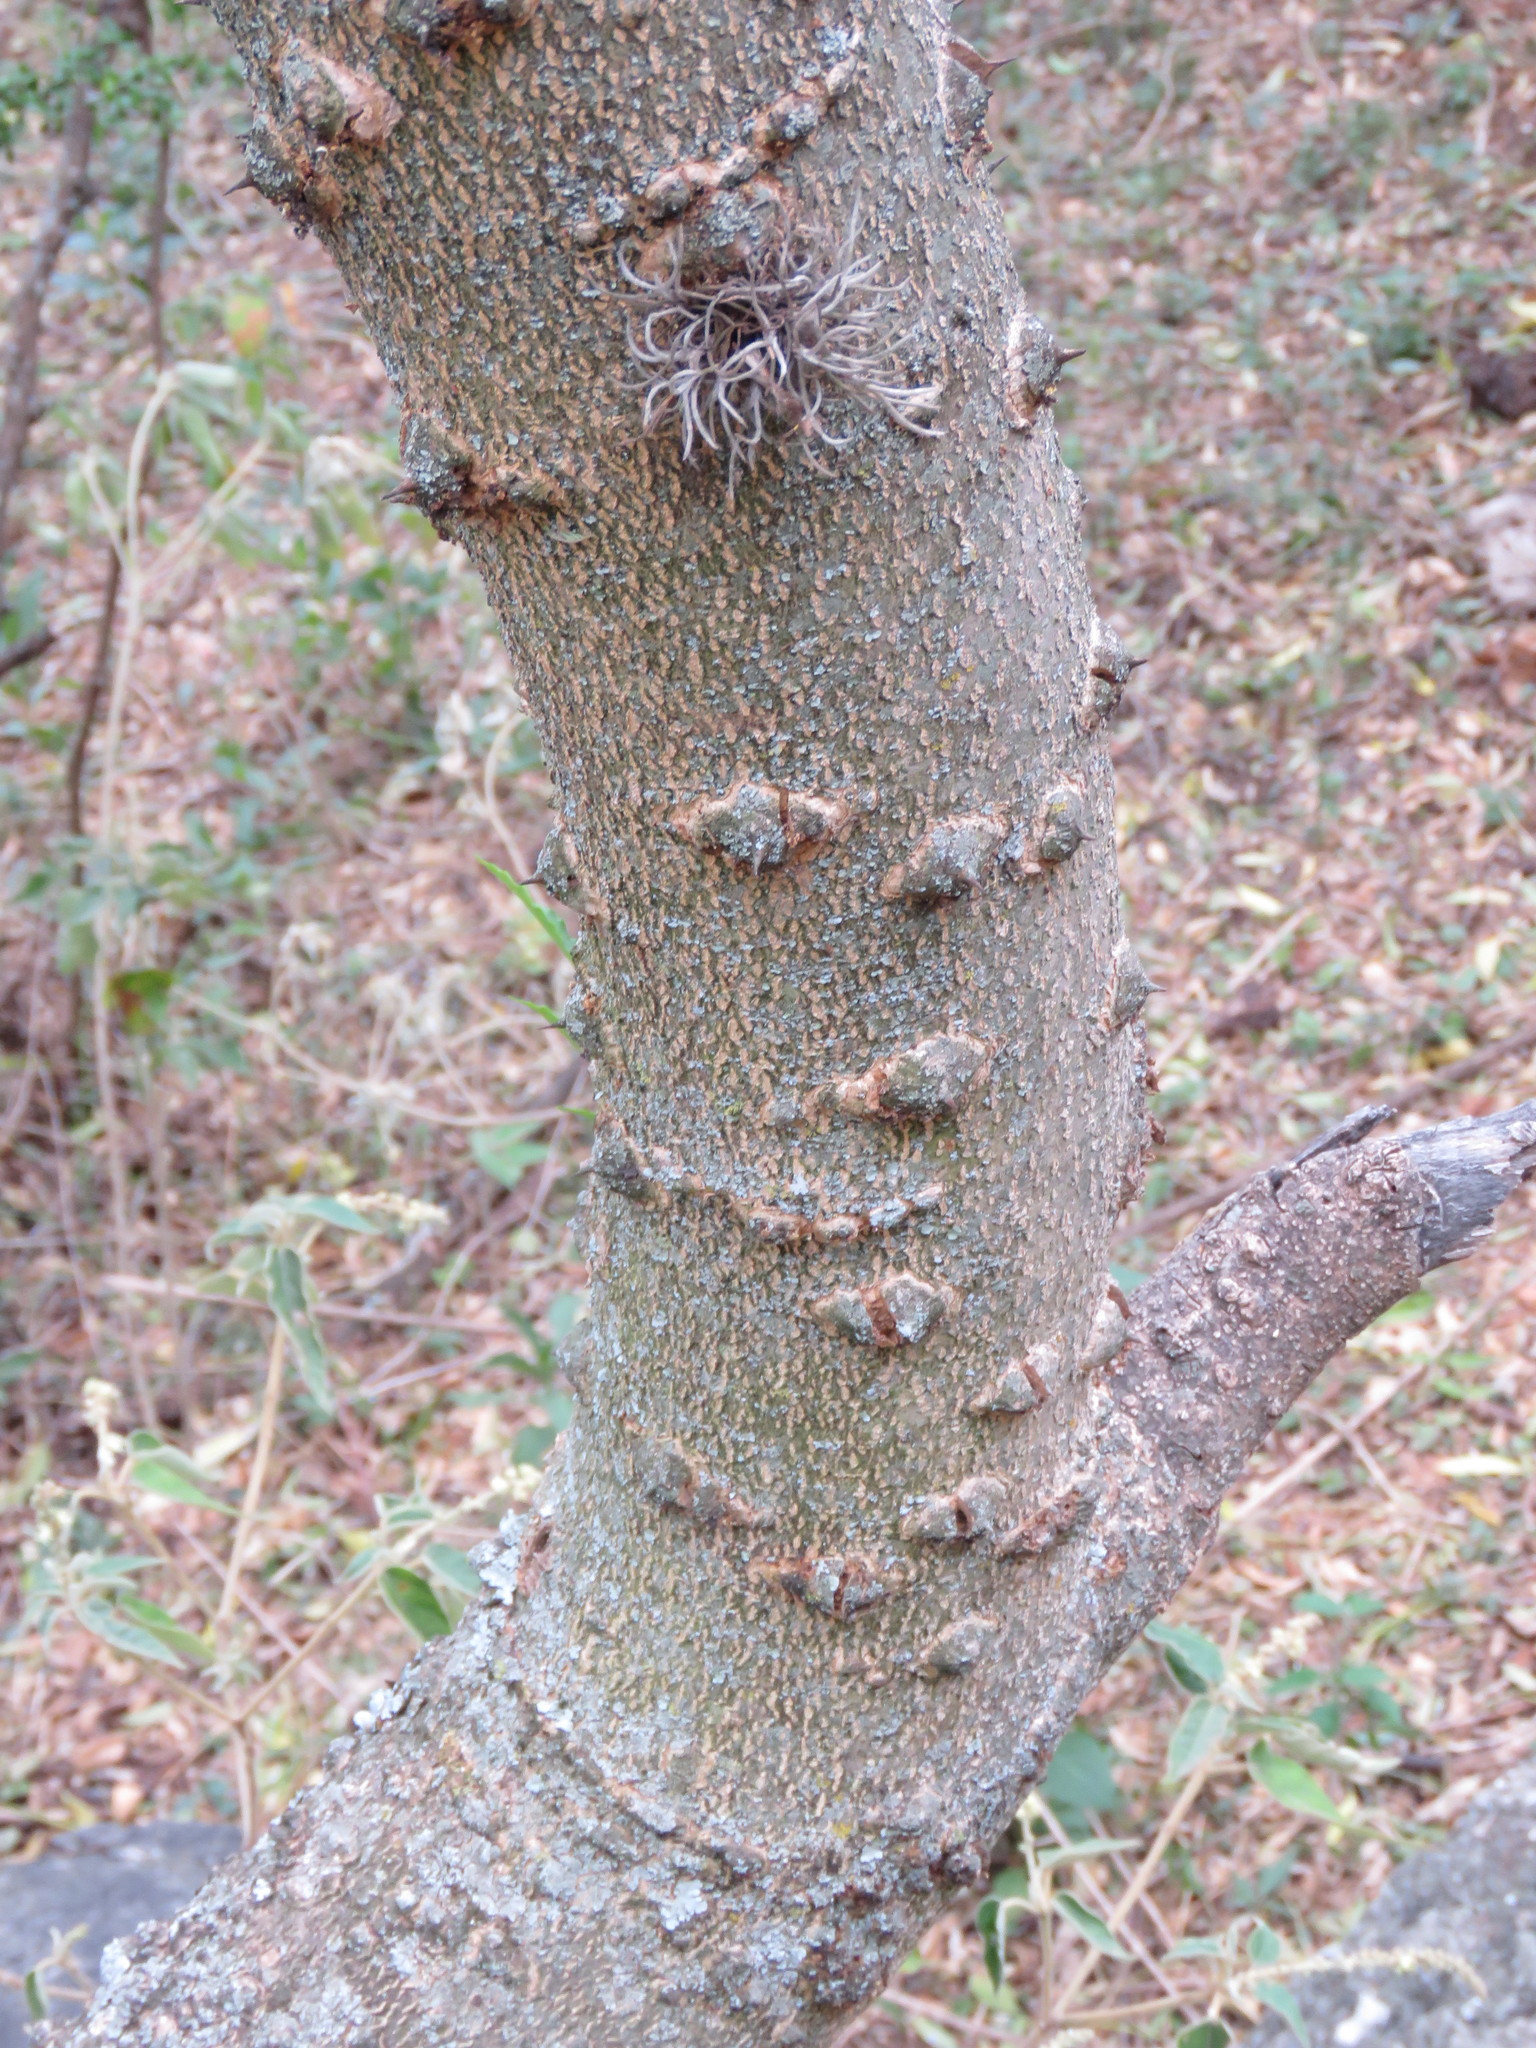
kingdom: Plantae
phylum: Tracheophyta
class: Magnoliopsida
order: Sapindales
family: Rutaceae
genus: Zanthoxylum
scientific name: Zanthoxylum coco
